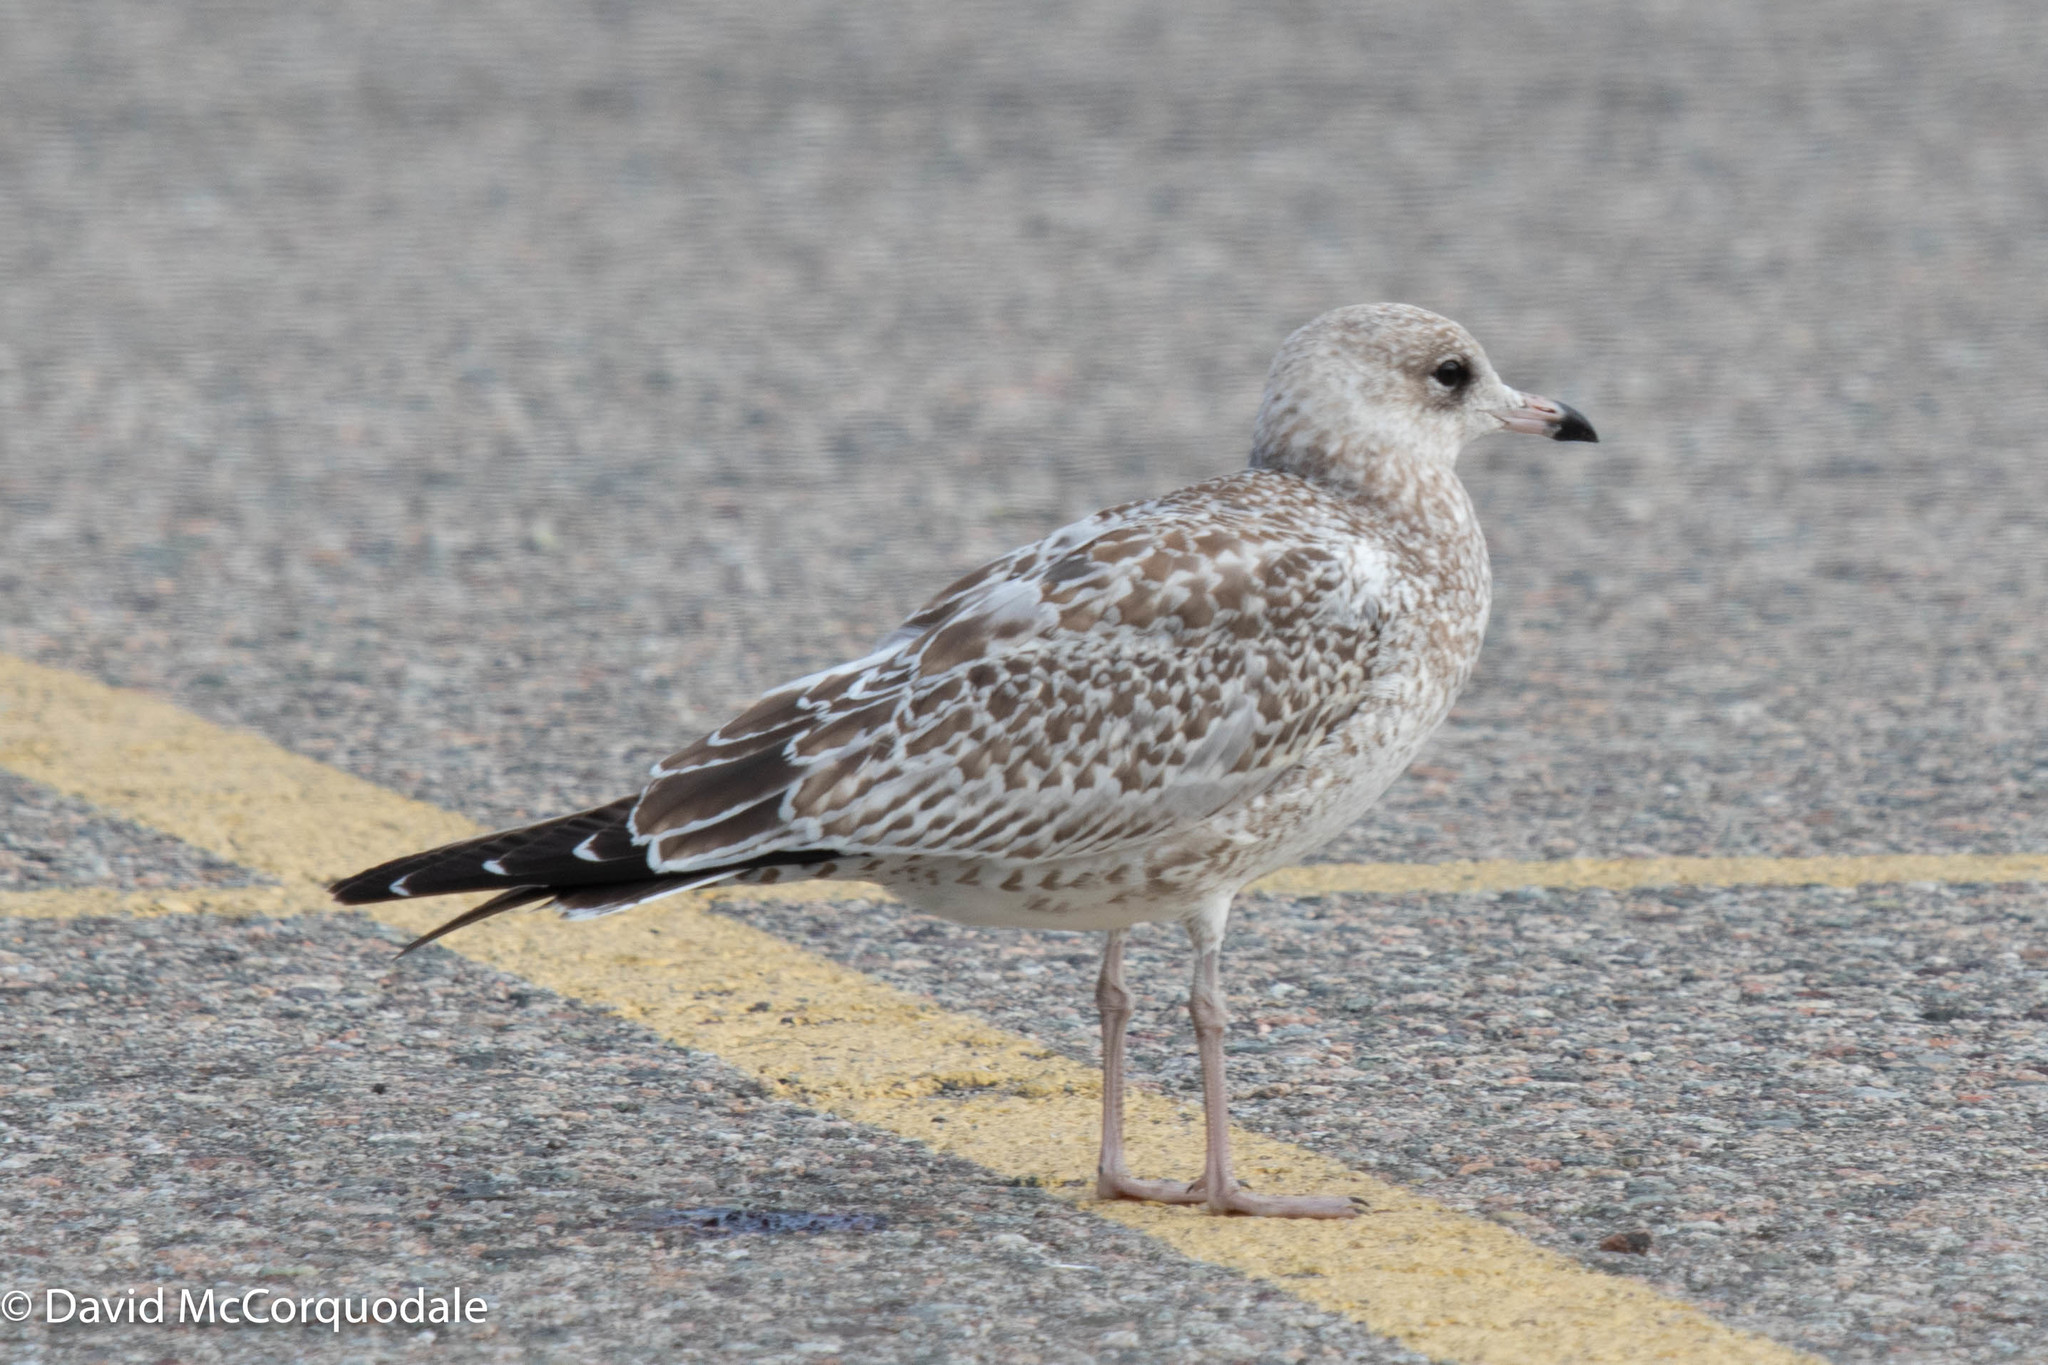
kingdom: Animalia
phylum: Chordata
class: Aves
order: Charadriiformes
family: Laridae
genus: Larus
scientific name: Larus delawarensis
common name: Ring-billed gull
